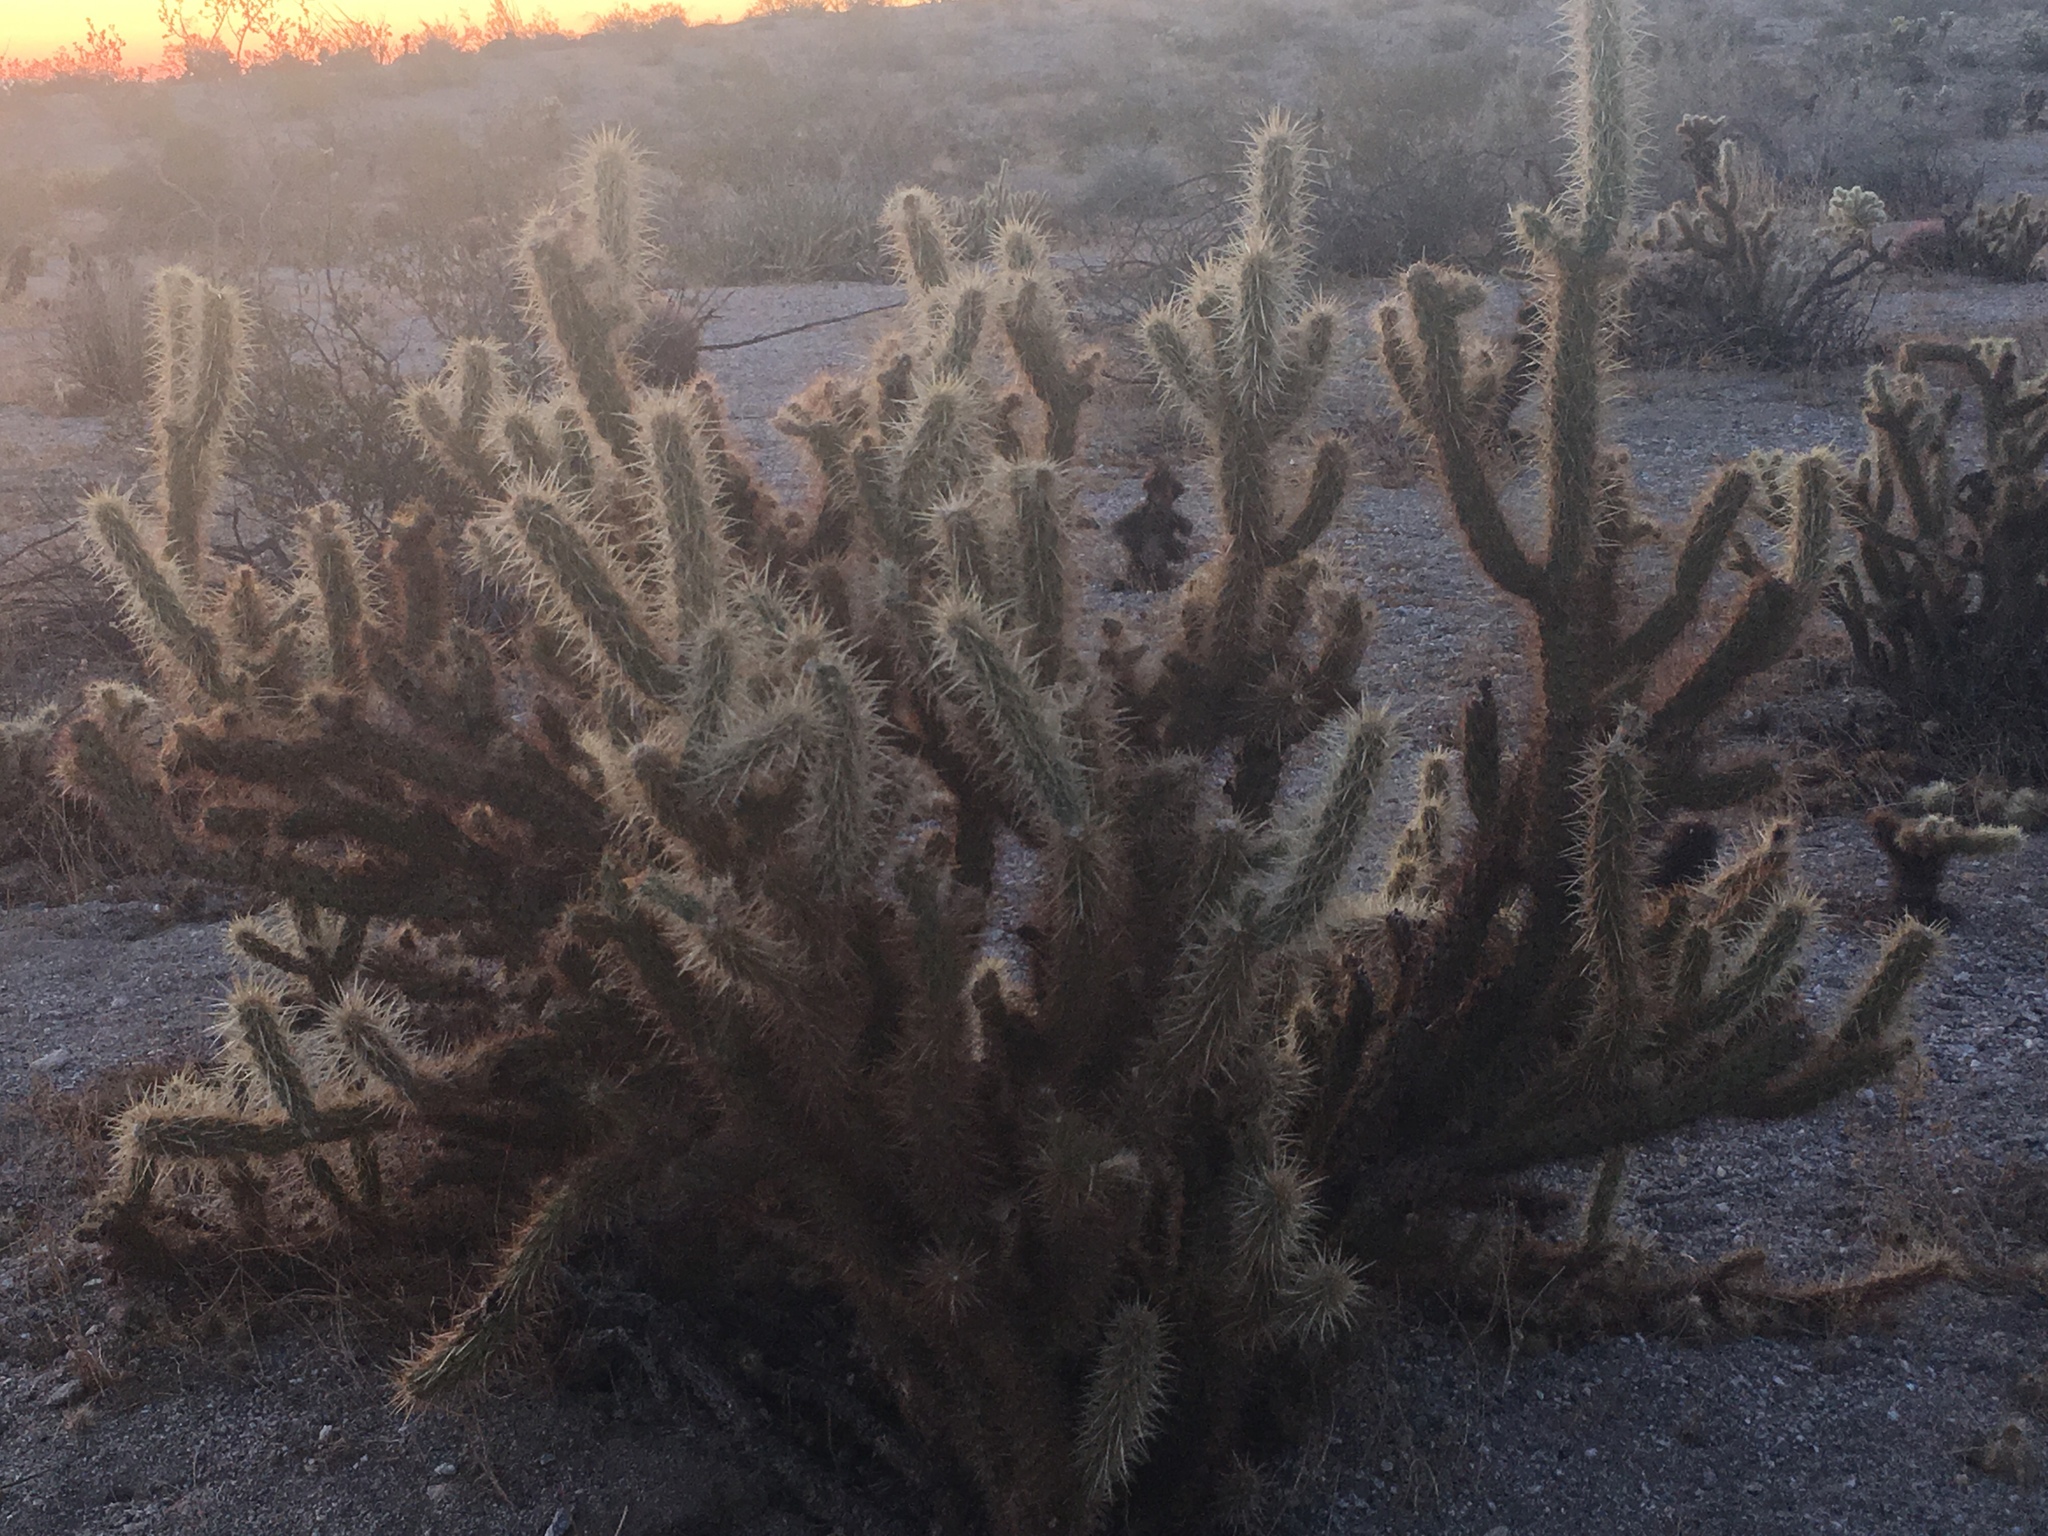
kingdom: Plantae
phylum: Tracheophyta
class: Magnoliopsida
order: Caryophyllales
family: Cactaceae
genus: Cylindropuntia
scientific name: Cylindropuntia ganderi
